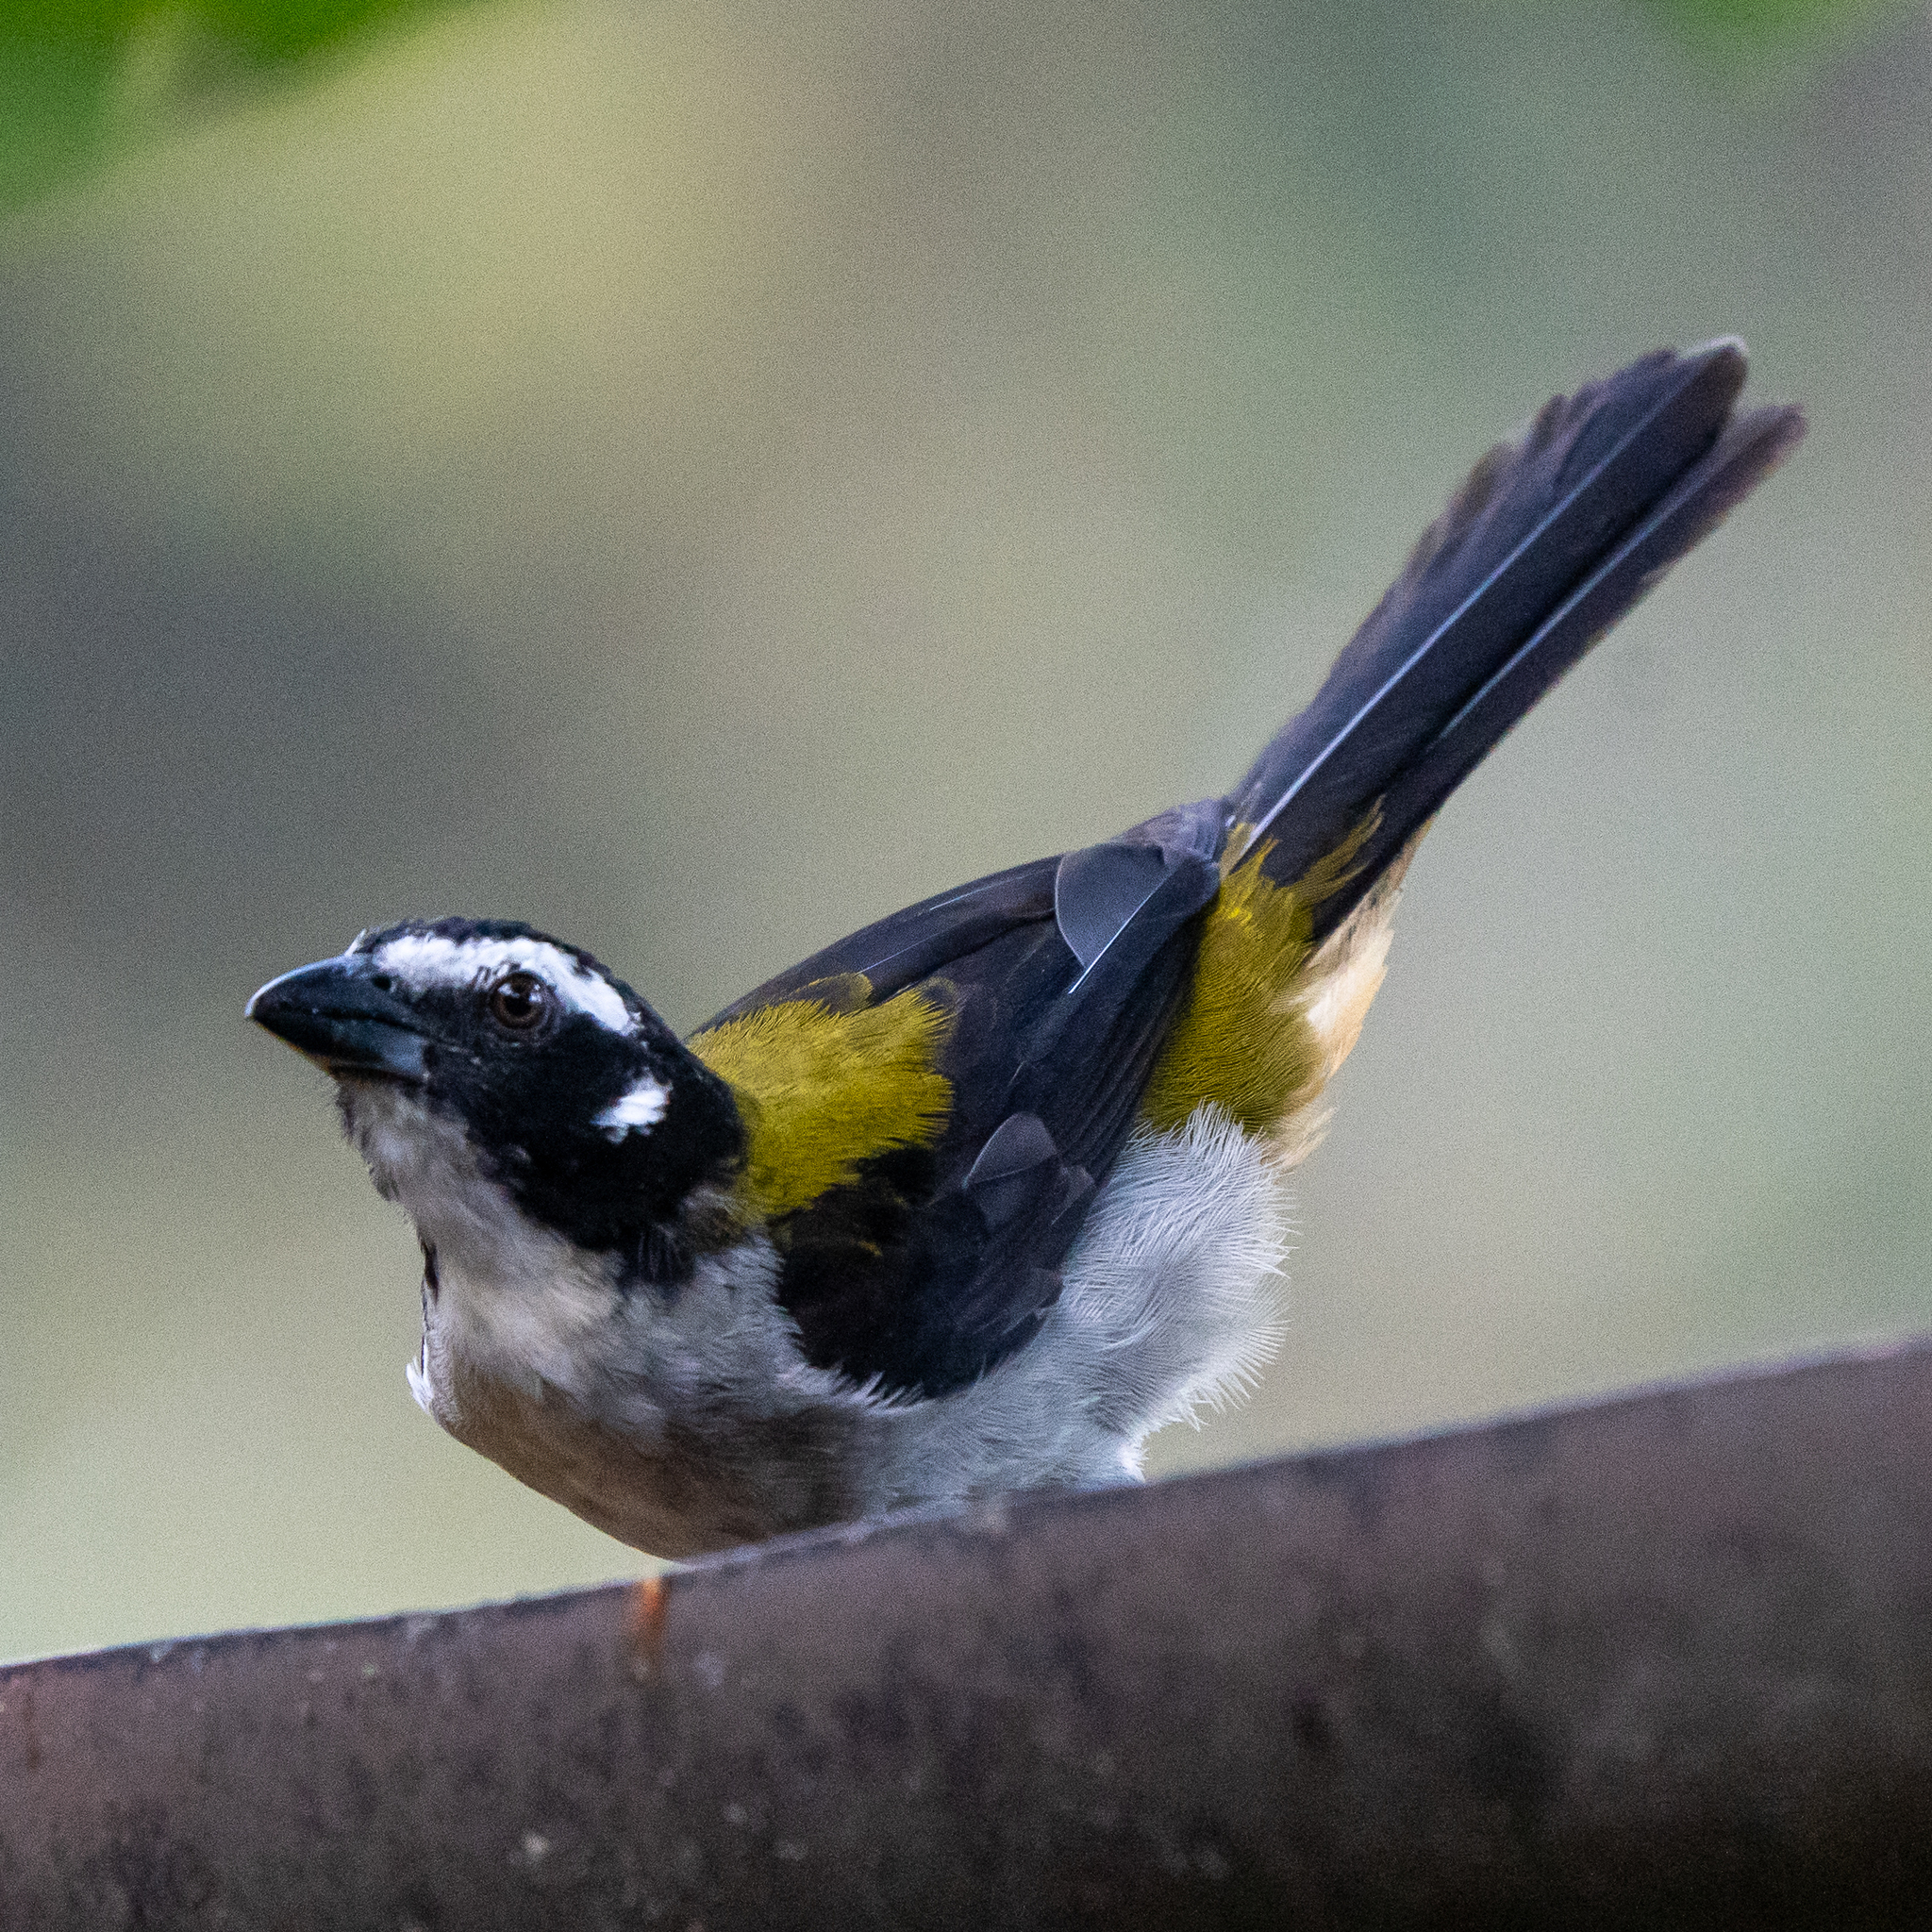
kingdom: Animalia
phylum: Chordata
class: Aves
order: Passeriformes
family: Thraupidae
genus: Saltator
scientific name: Saltator atripennis
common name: Black-winged saltator
